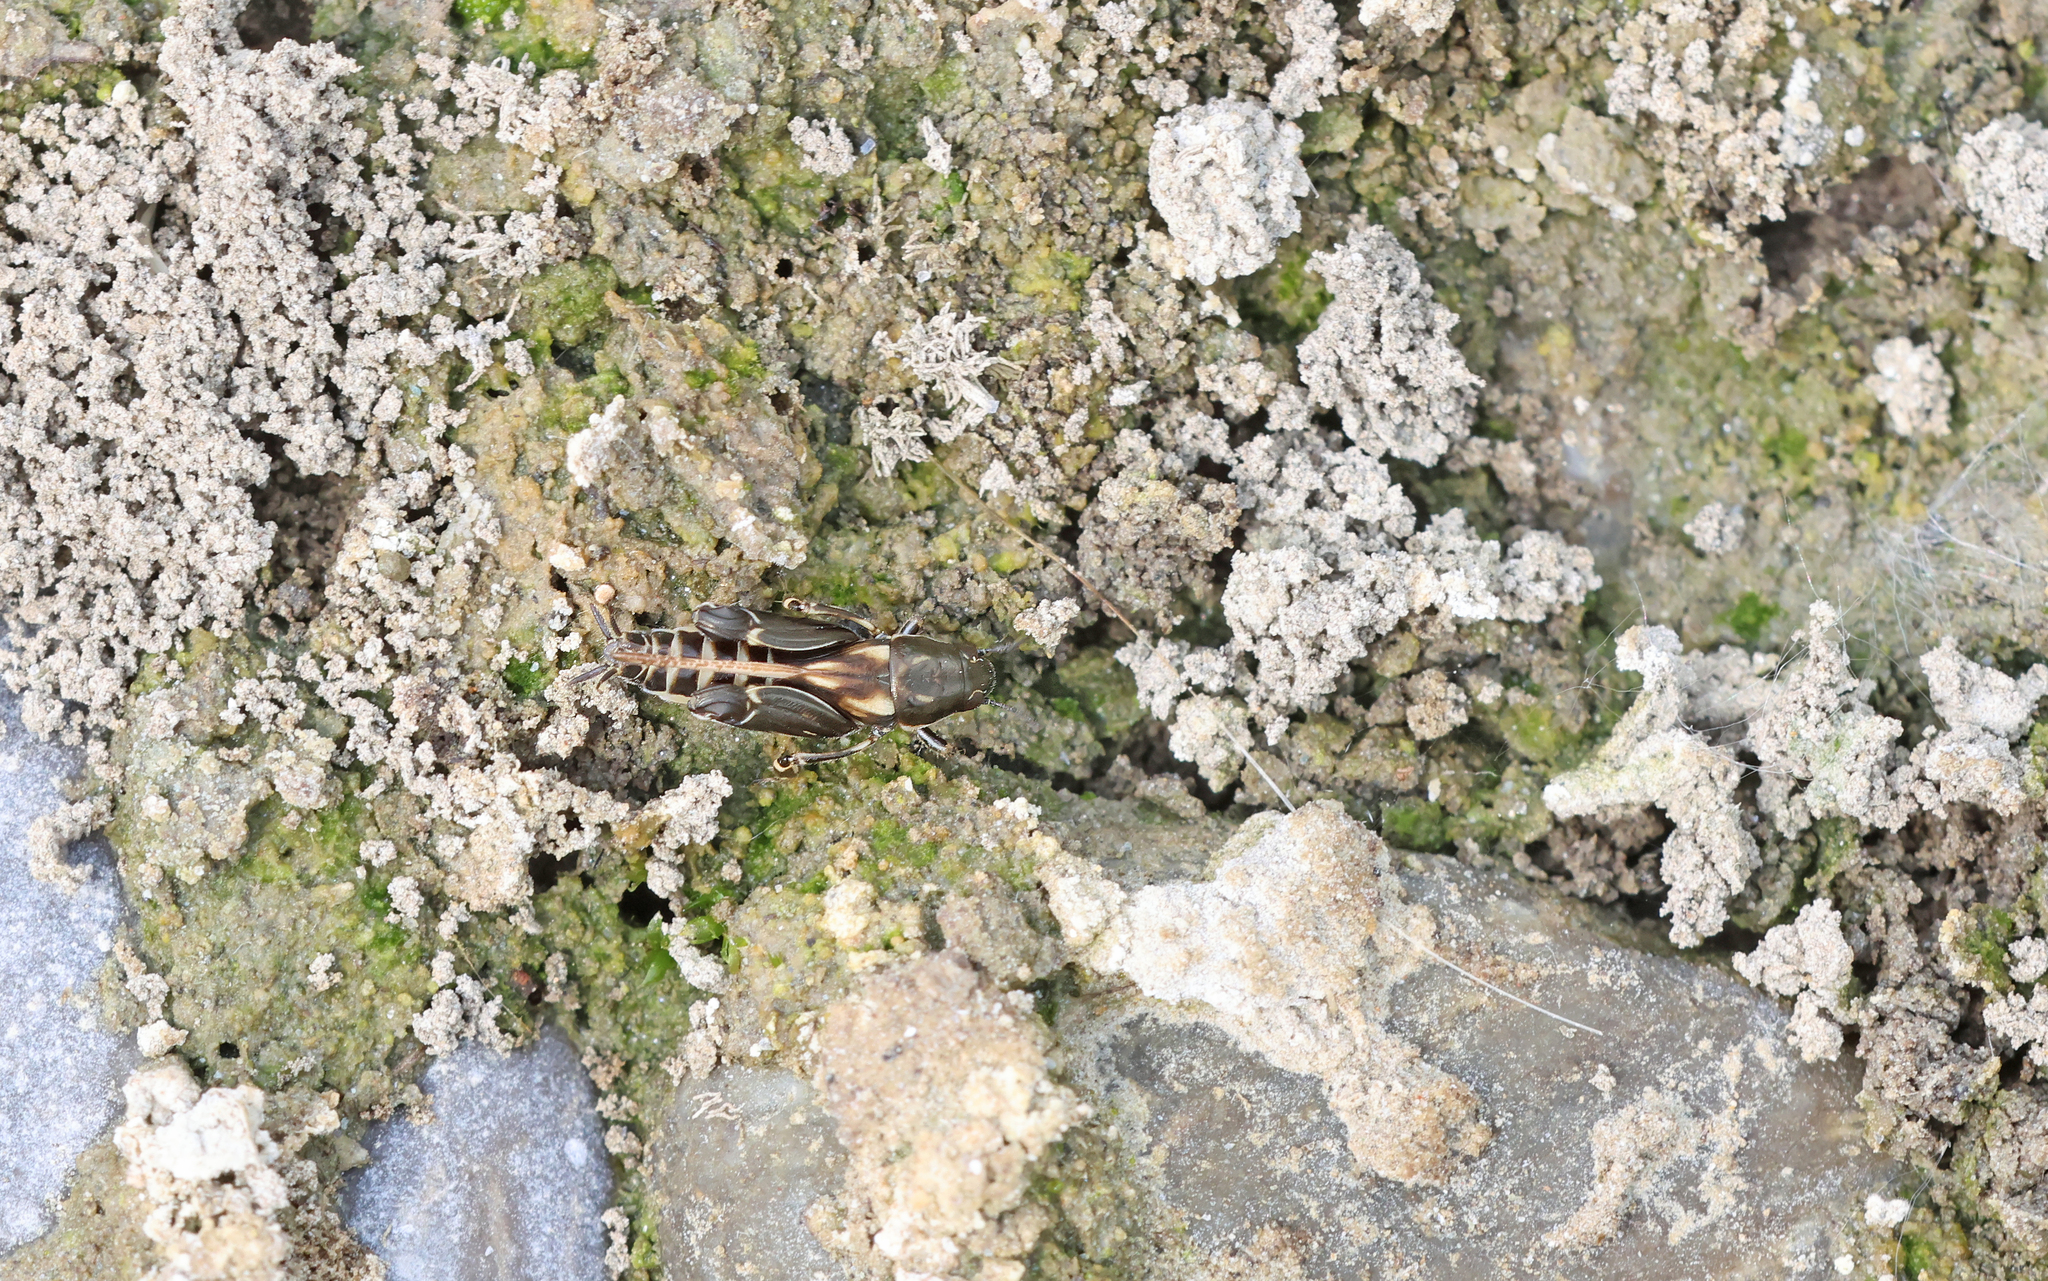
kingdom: Animalia
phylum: Arthropoda
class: Insecta
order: Orthoptera
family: Tridactylidae
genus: Xya
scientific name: Xya variegata
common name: Le tridactyle panaché
